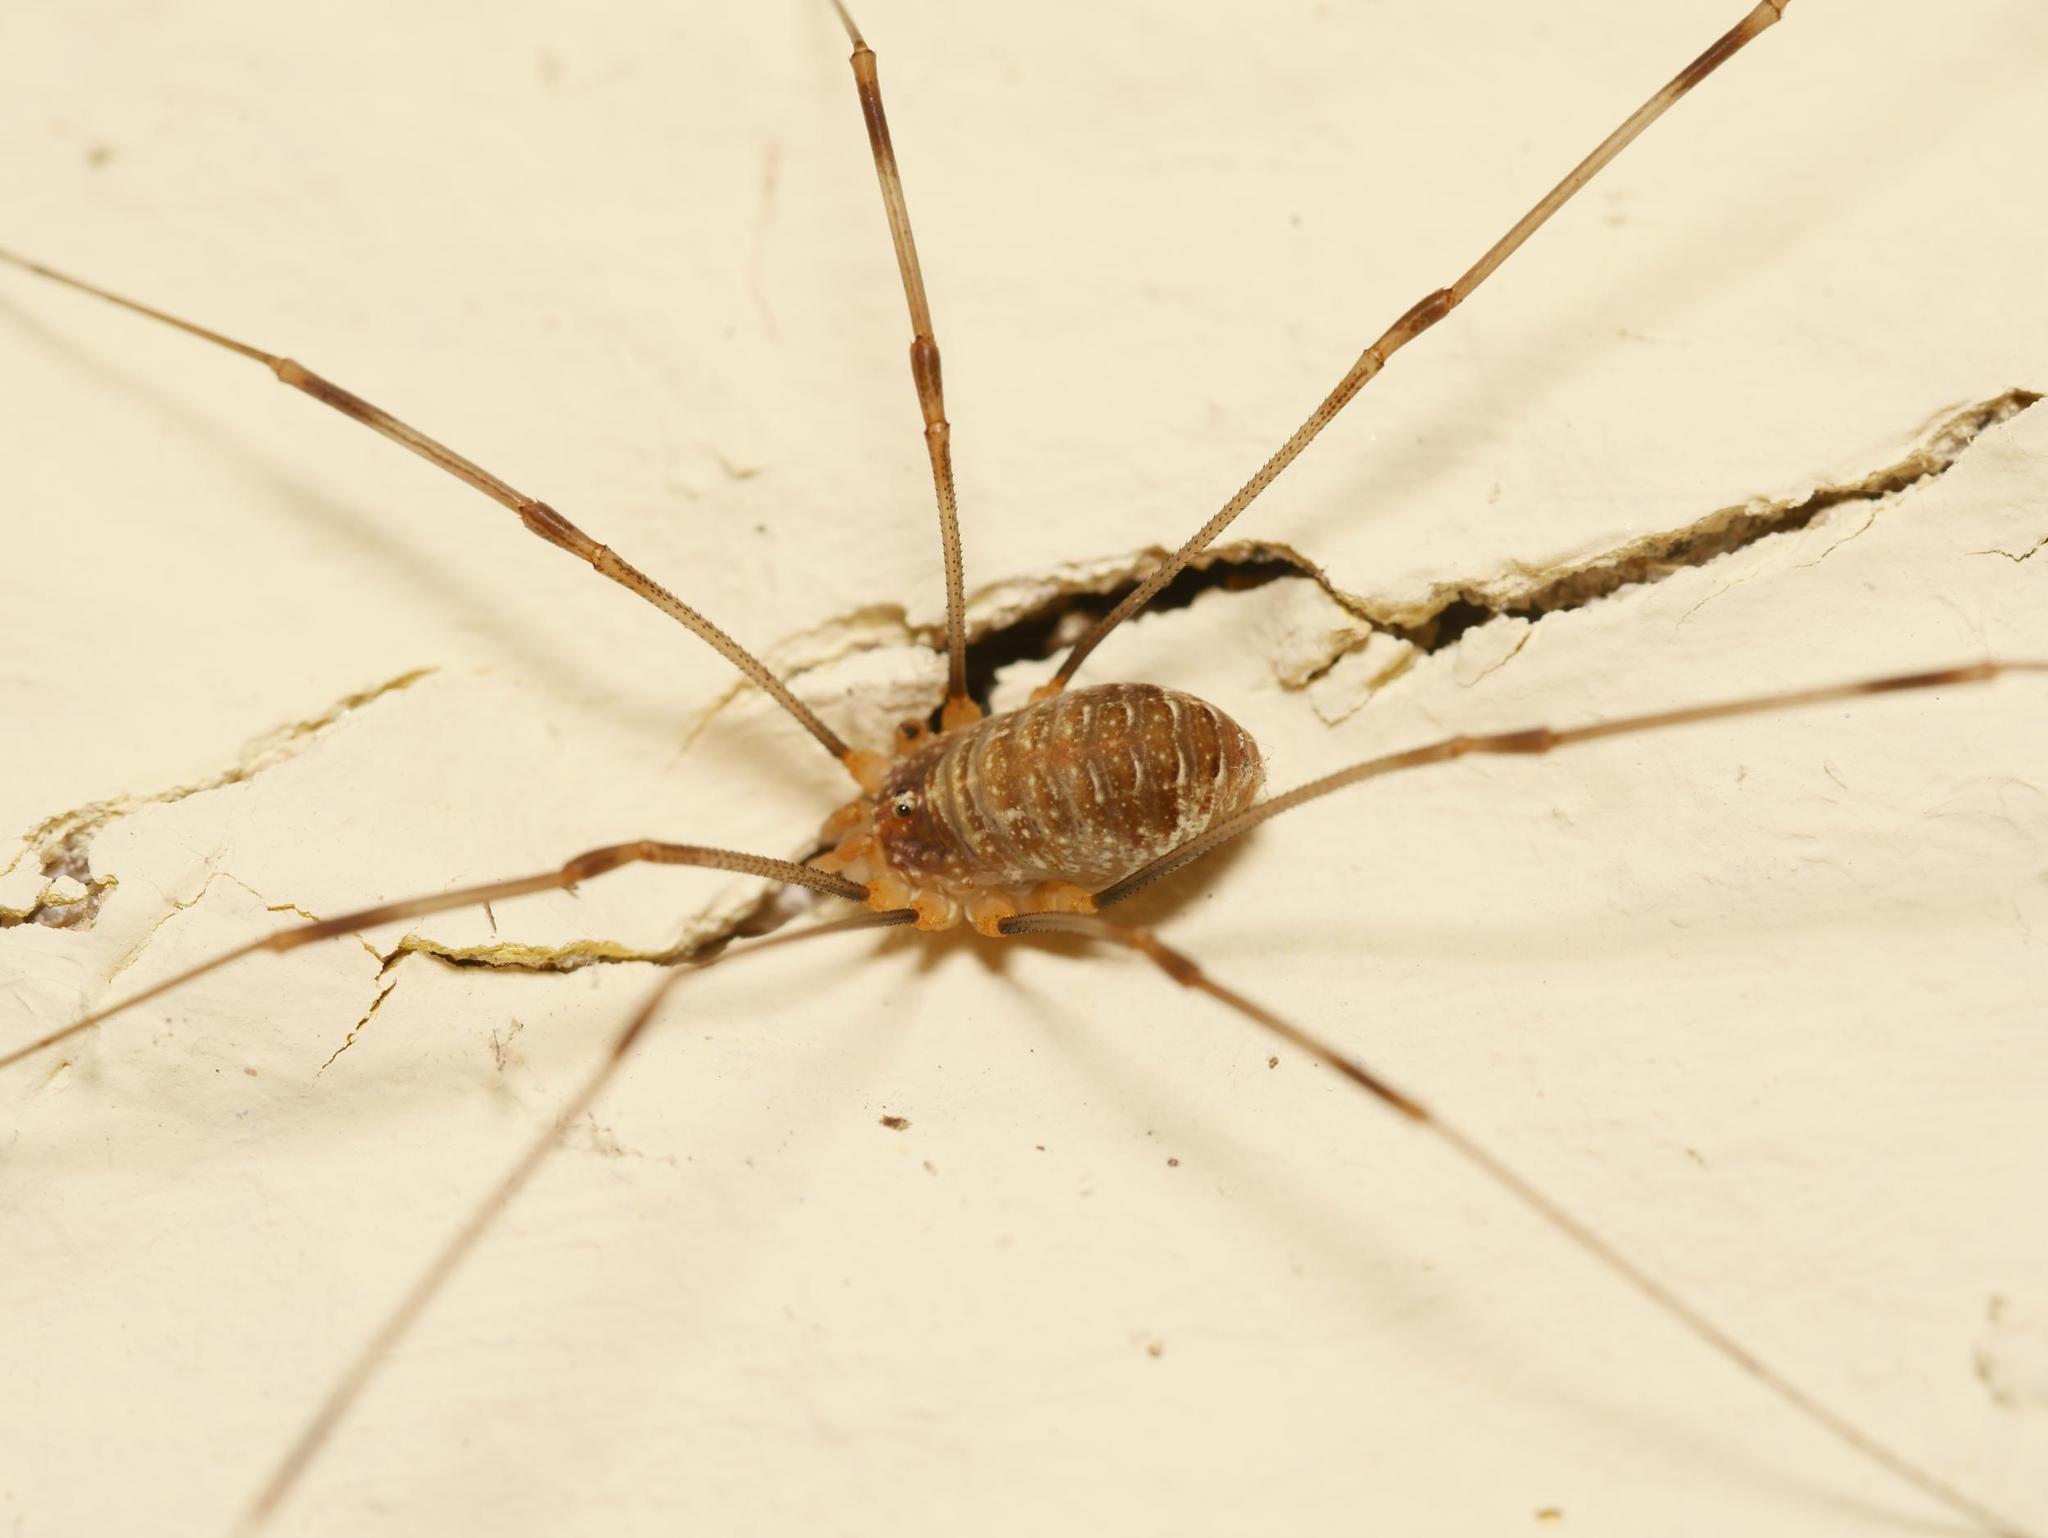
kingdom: Animalia
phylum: Arthropoda
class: Arachnida
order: Opiliones
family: Phalangiidae
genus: Opilio
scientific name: Opilio canestrinii
